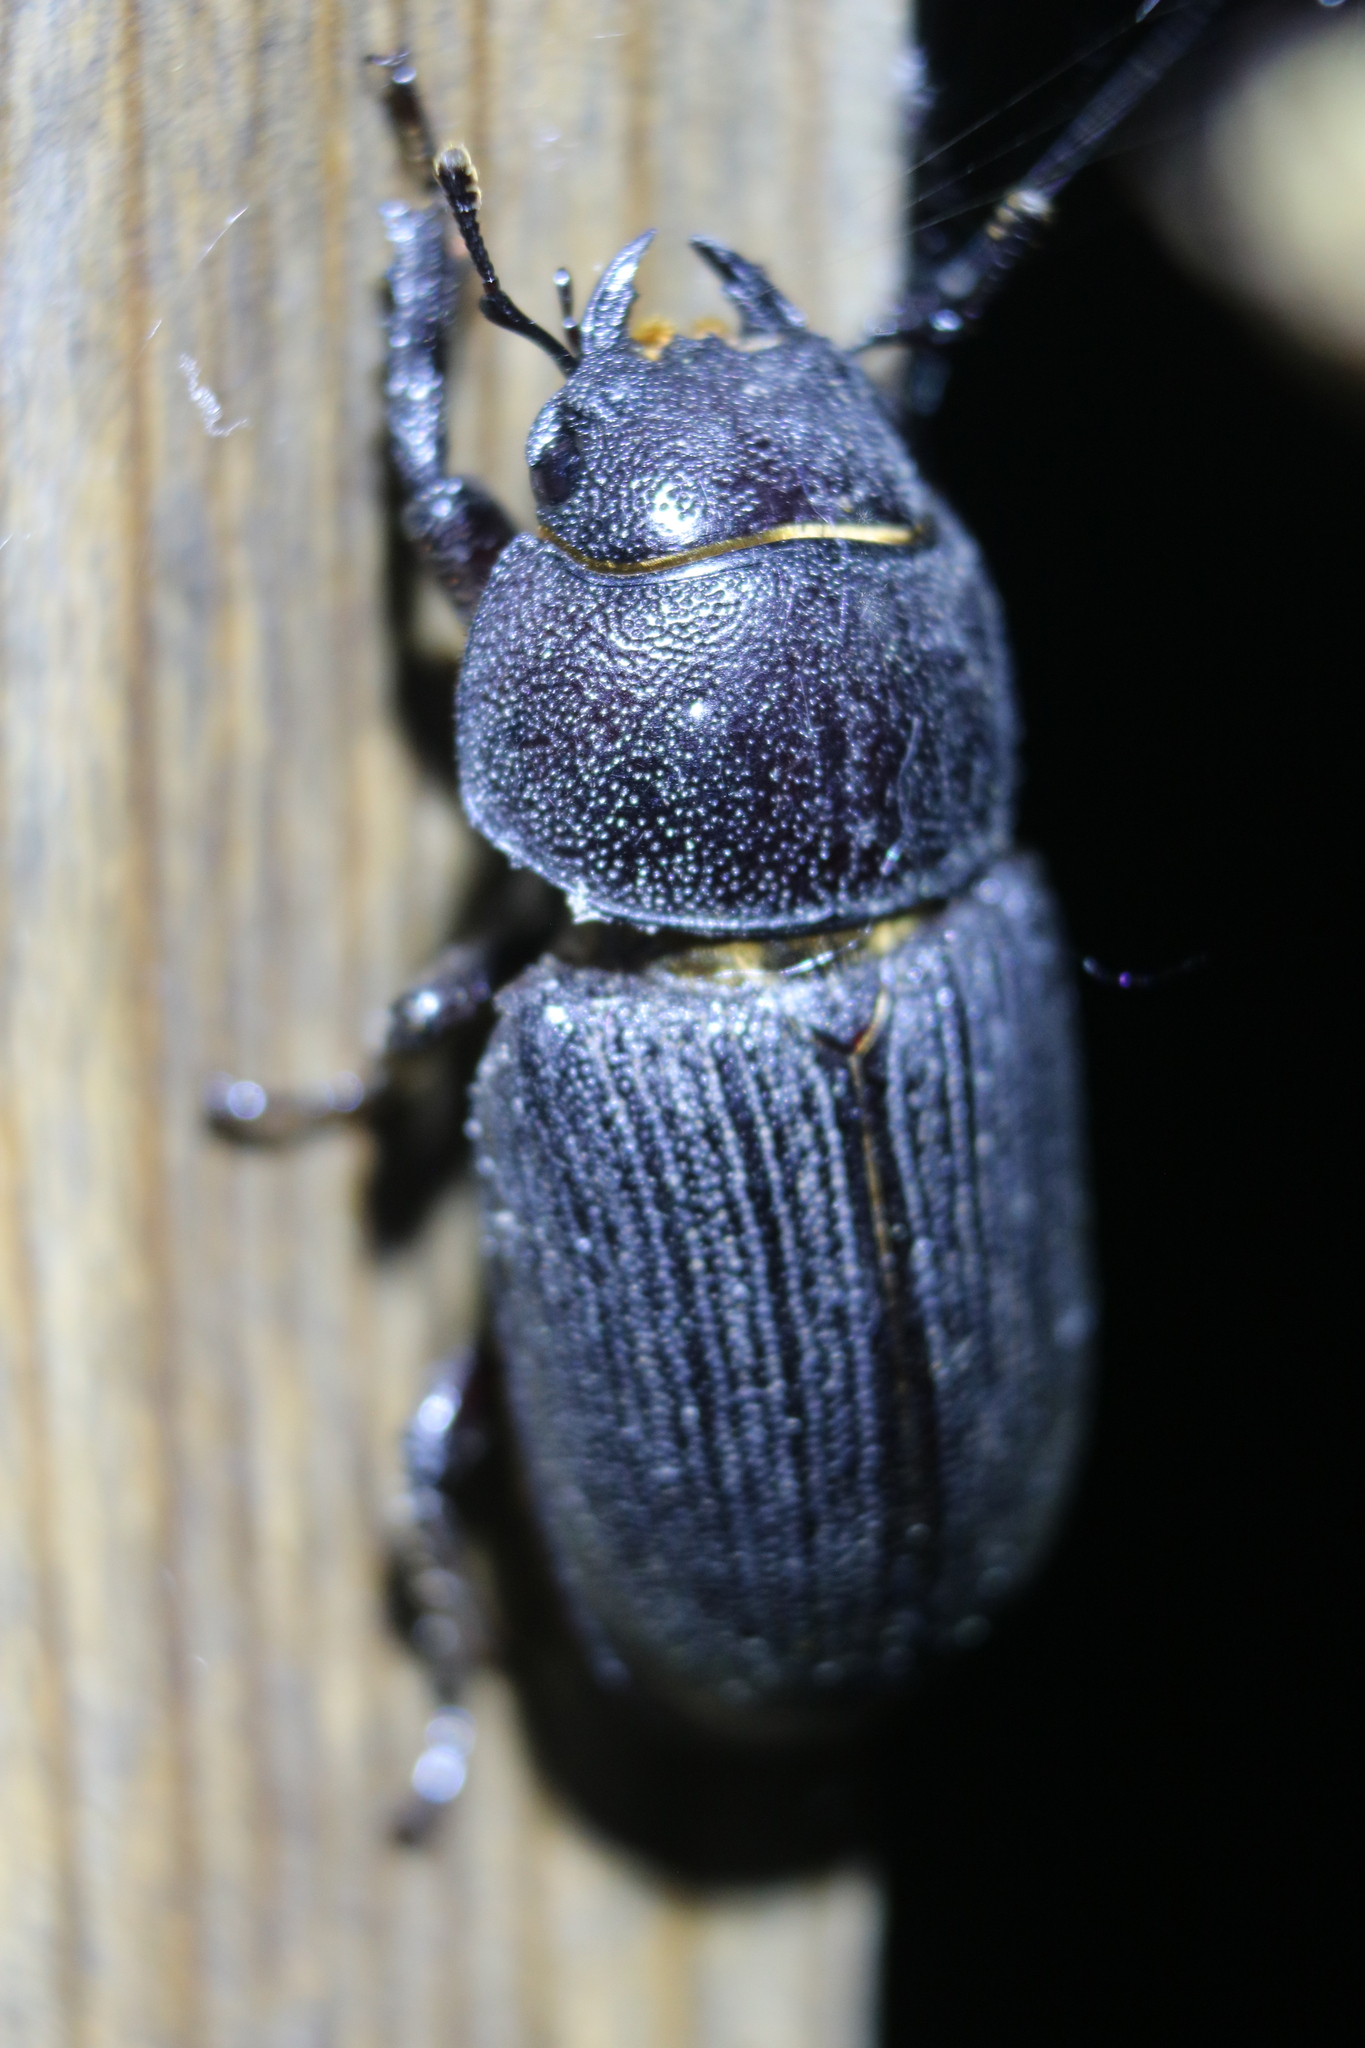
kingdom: Animalia
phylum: Arthropoda
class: Insecta
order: Coleoptera
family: Lucanidae
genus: Dorcus
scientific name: Dorcus parallelus
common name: Antelope beetle
